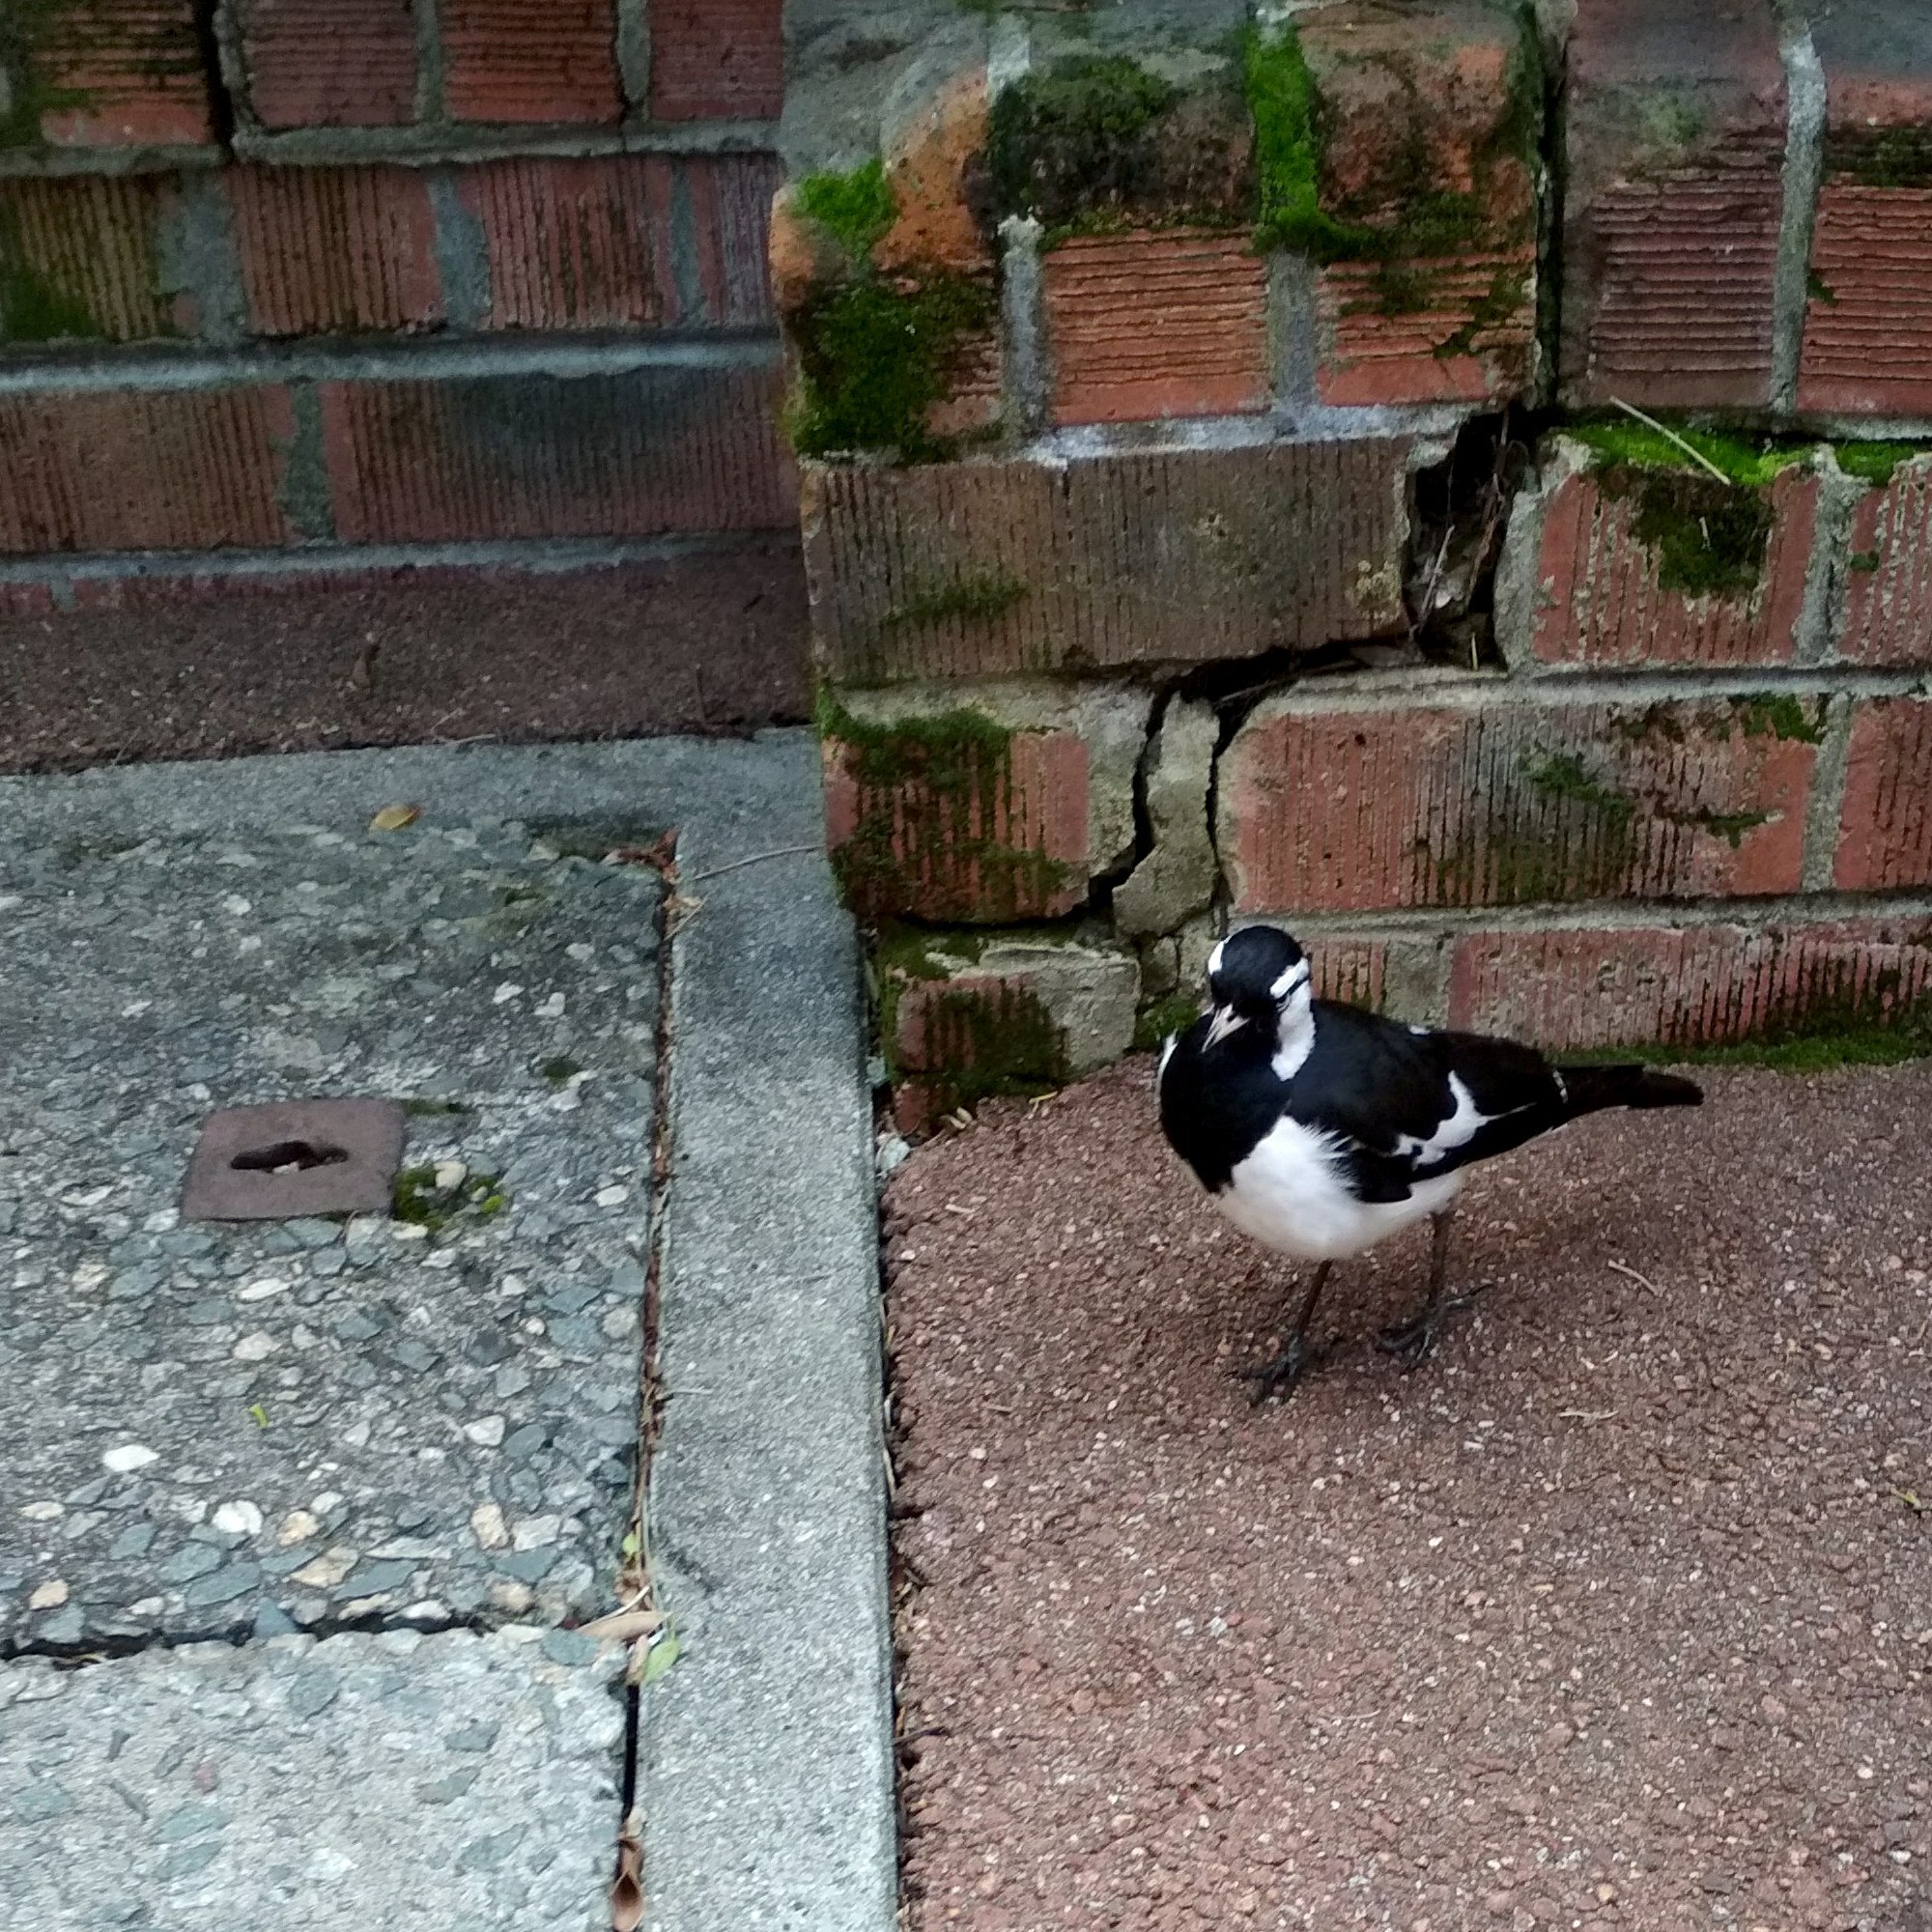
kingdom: Animalia
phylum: Chordata
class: Aves
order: Passeriformes
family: Monarchidae
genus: Grallina
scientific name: Grallina cyanoleuca
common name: Magpie-lark
